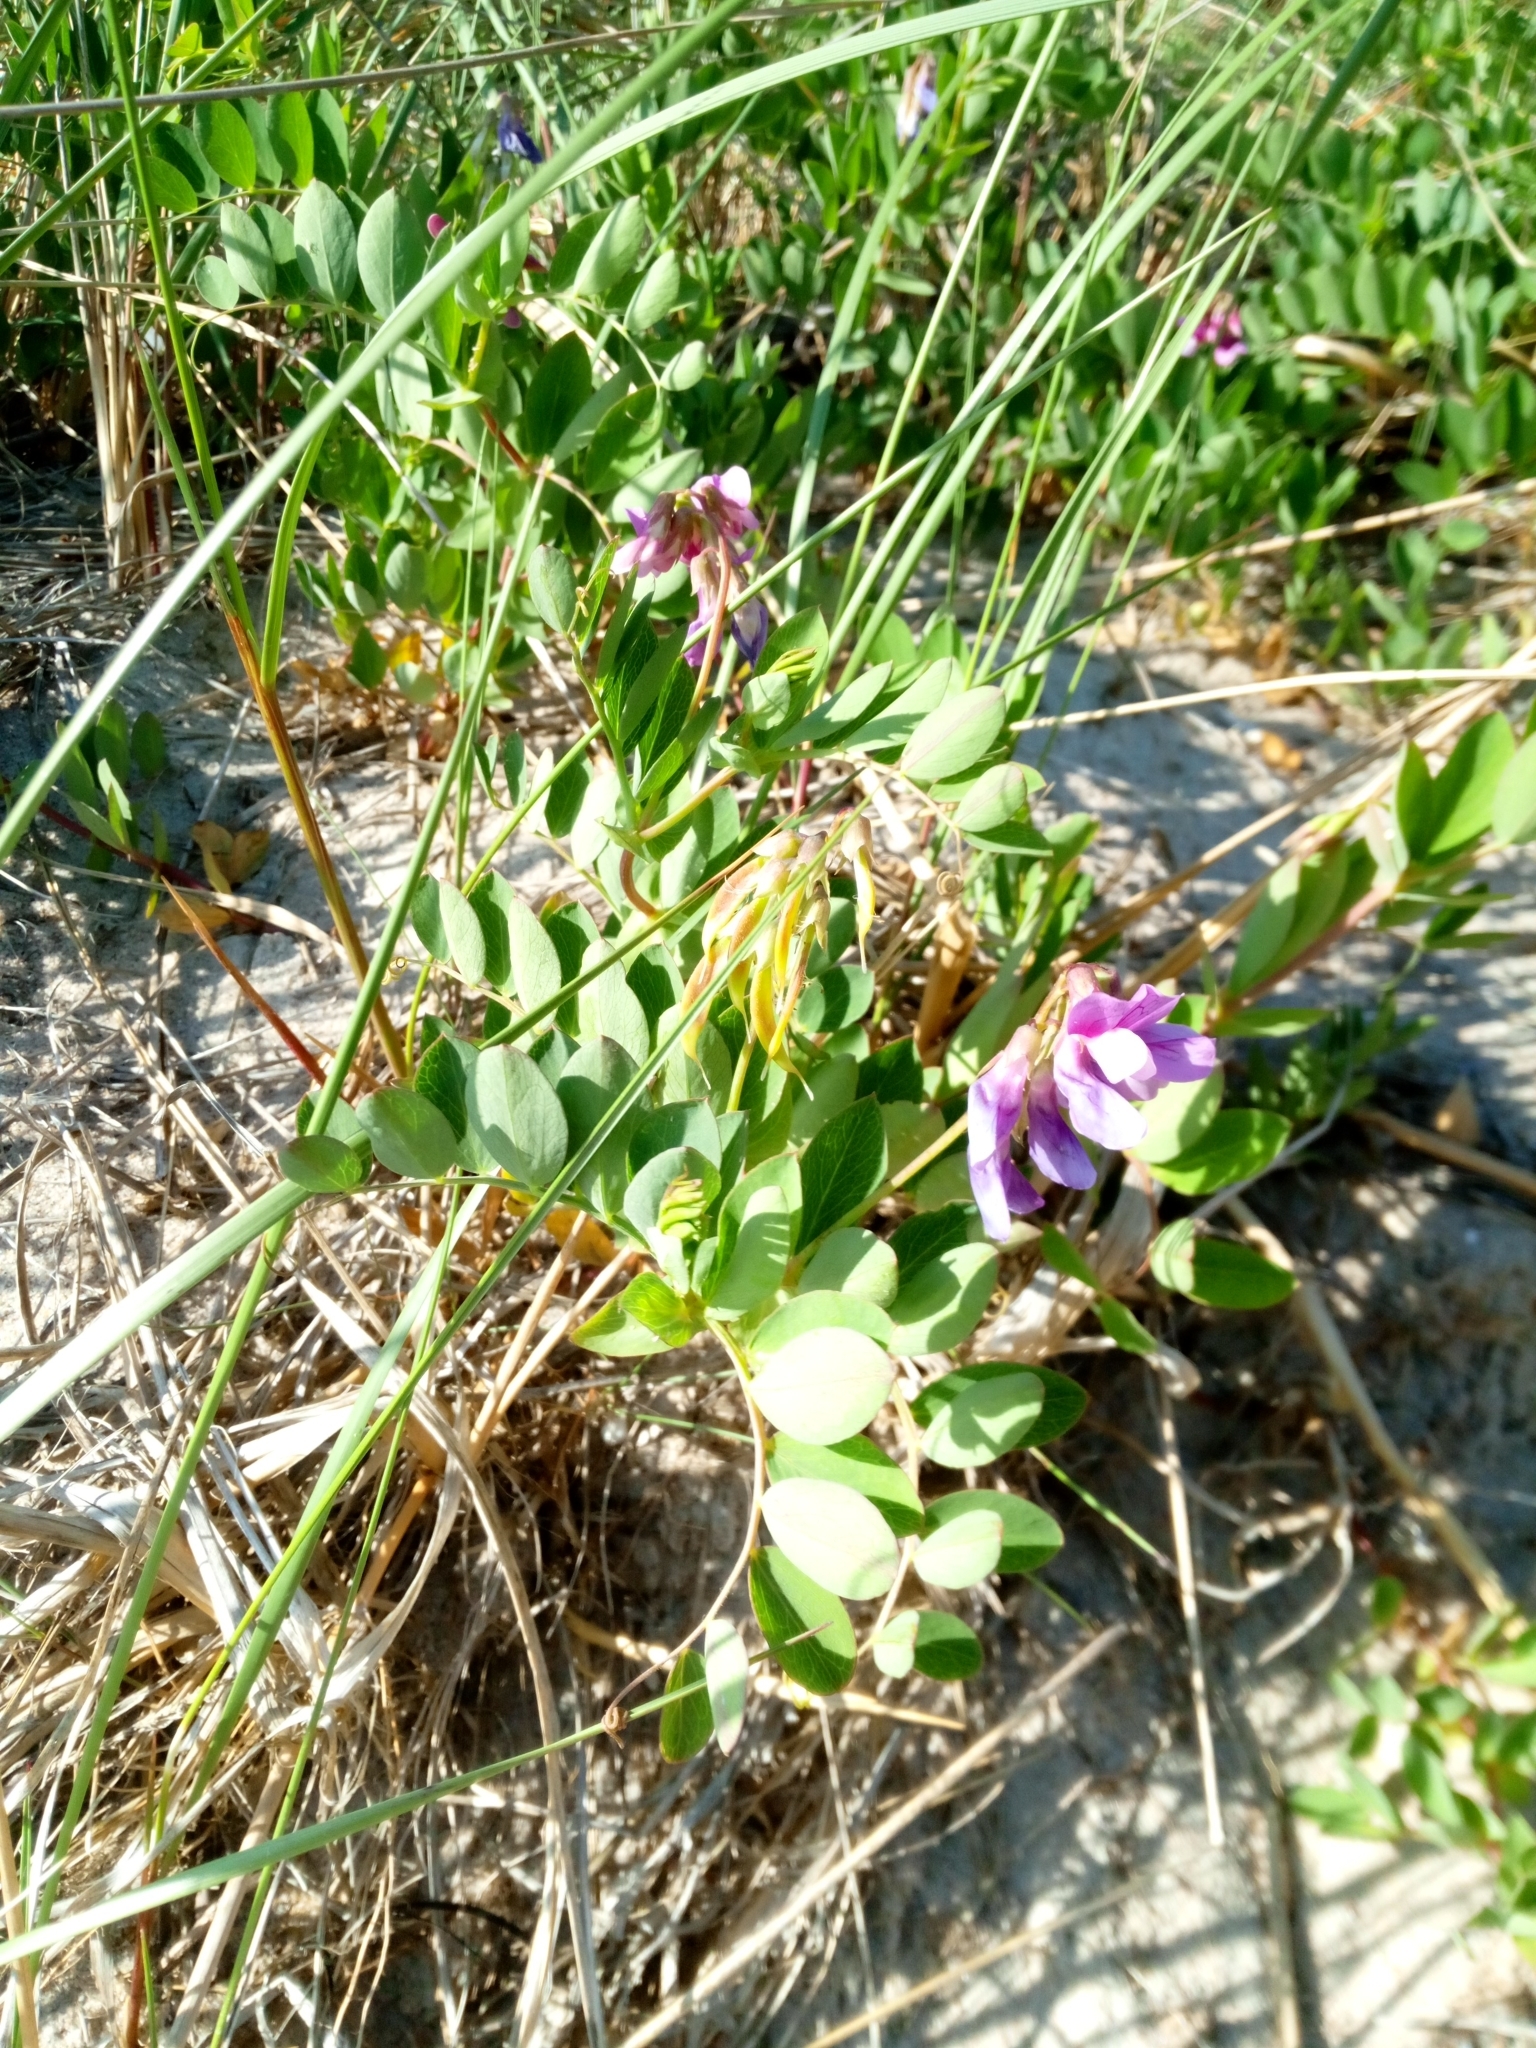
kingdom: Plantae
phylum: Tracheophyta
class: Magnoliopsida
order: Fabales
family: Fabaceae
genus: Lathyrus
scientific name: Lathyrus japonicus
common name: Sea pea
